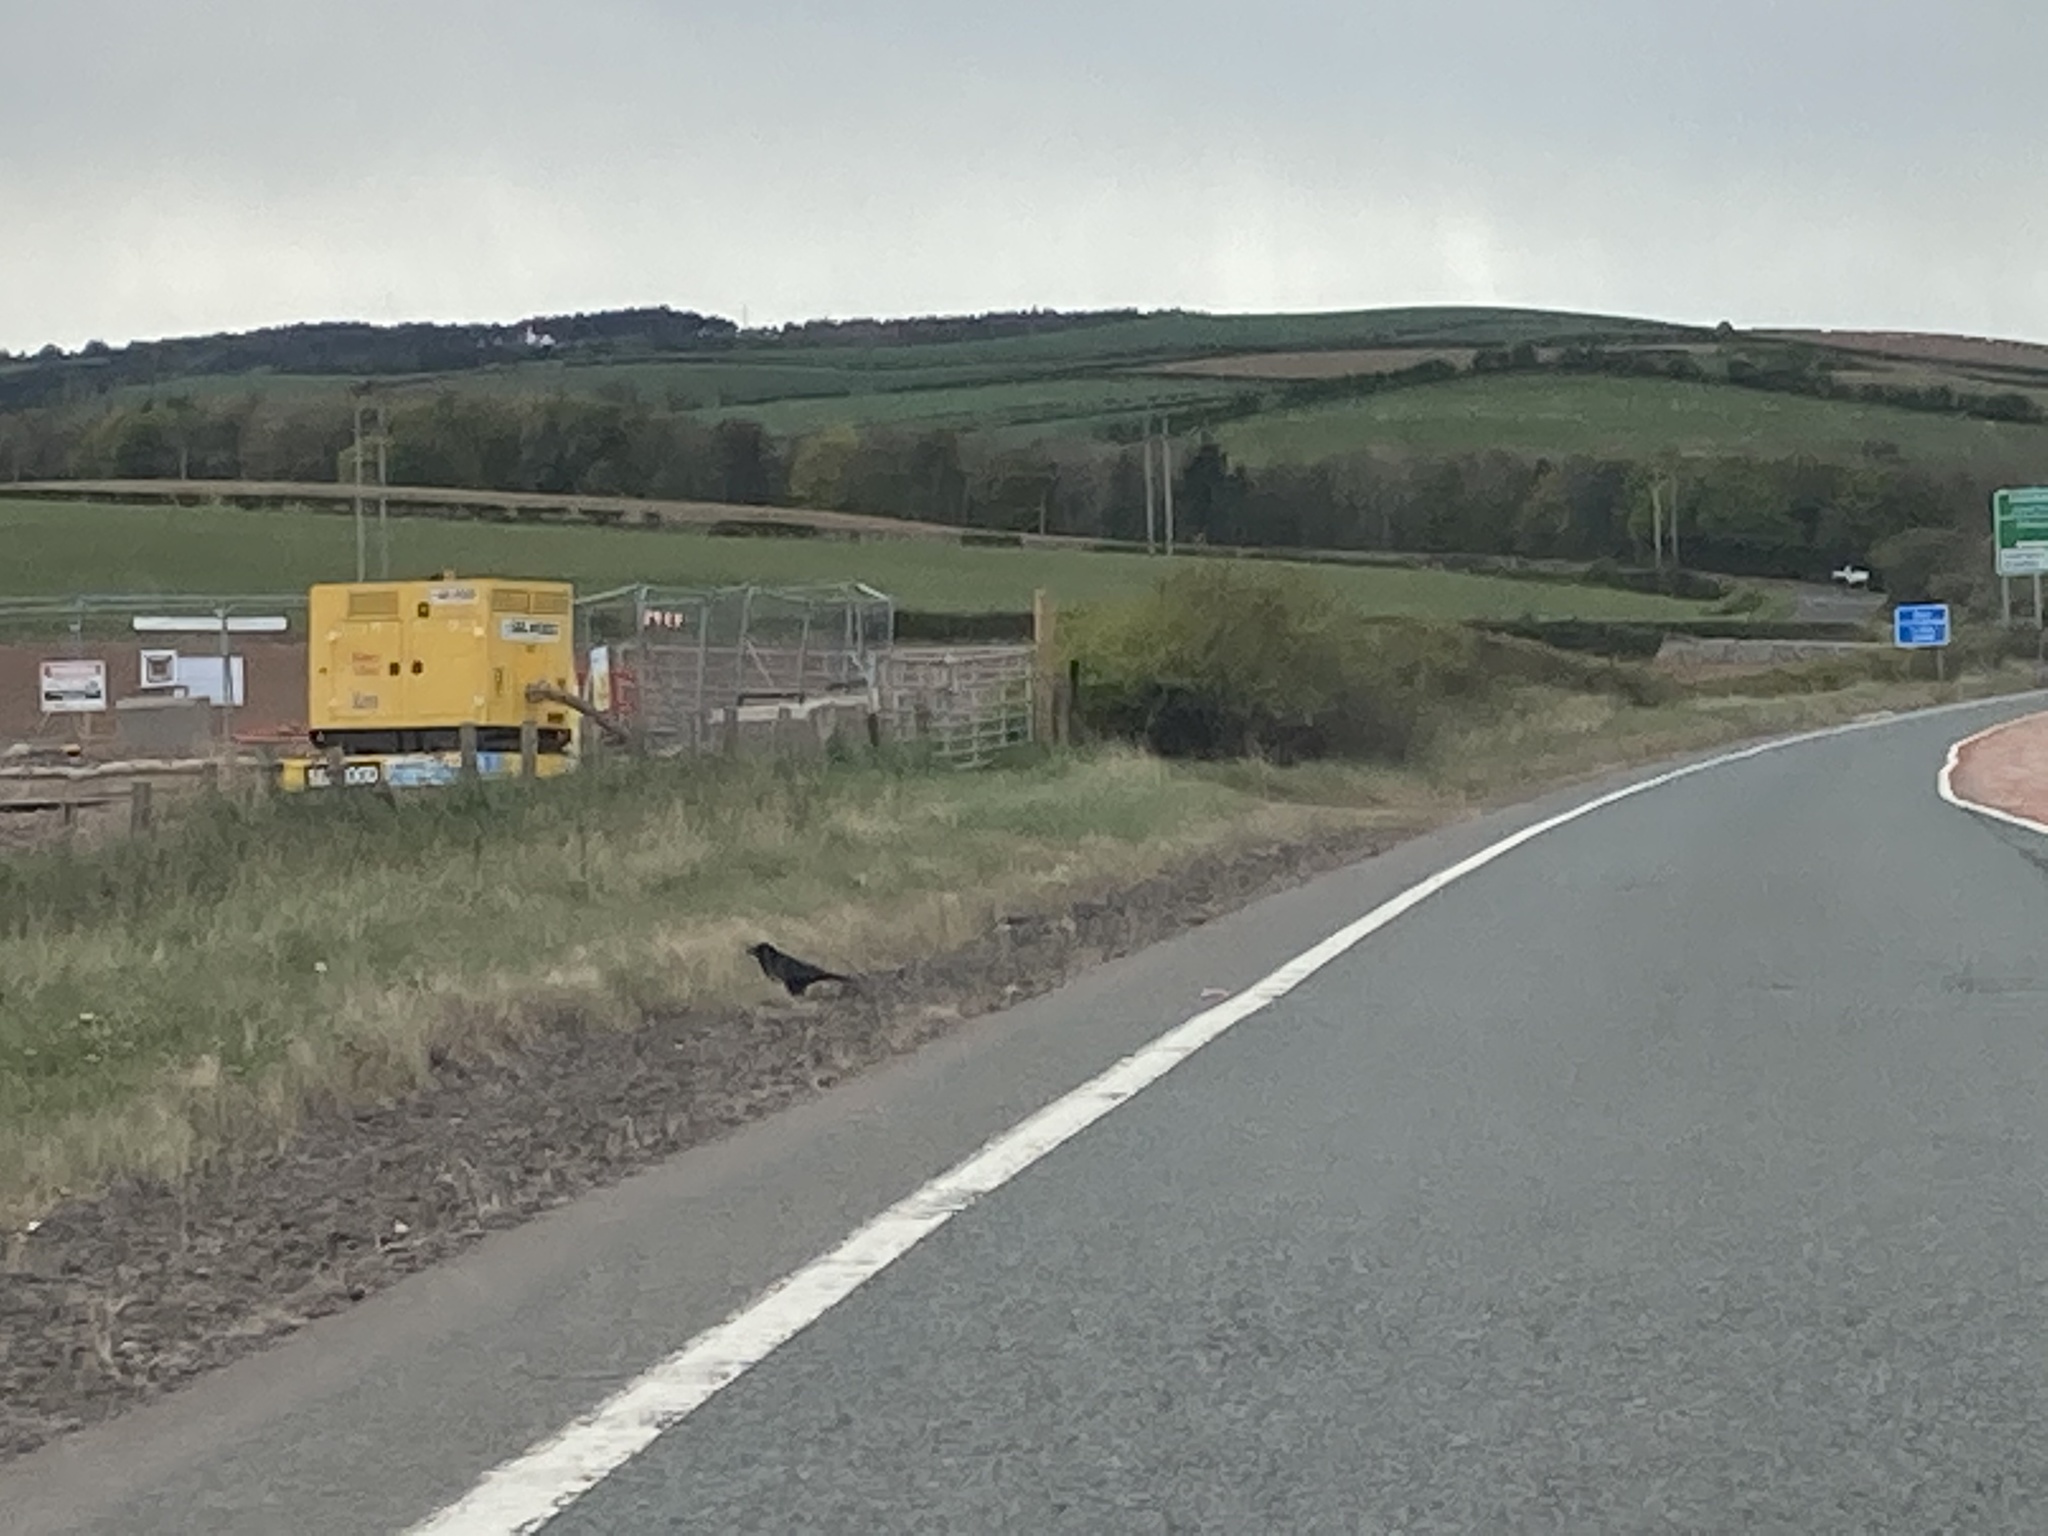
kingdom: Animalia
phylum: Chordata
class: Aves
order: Passeriformes
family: Corvidae
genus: Corvus
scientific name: Corvus corone
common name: Carrion crow
